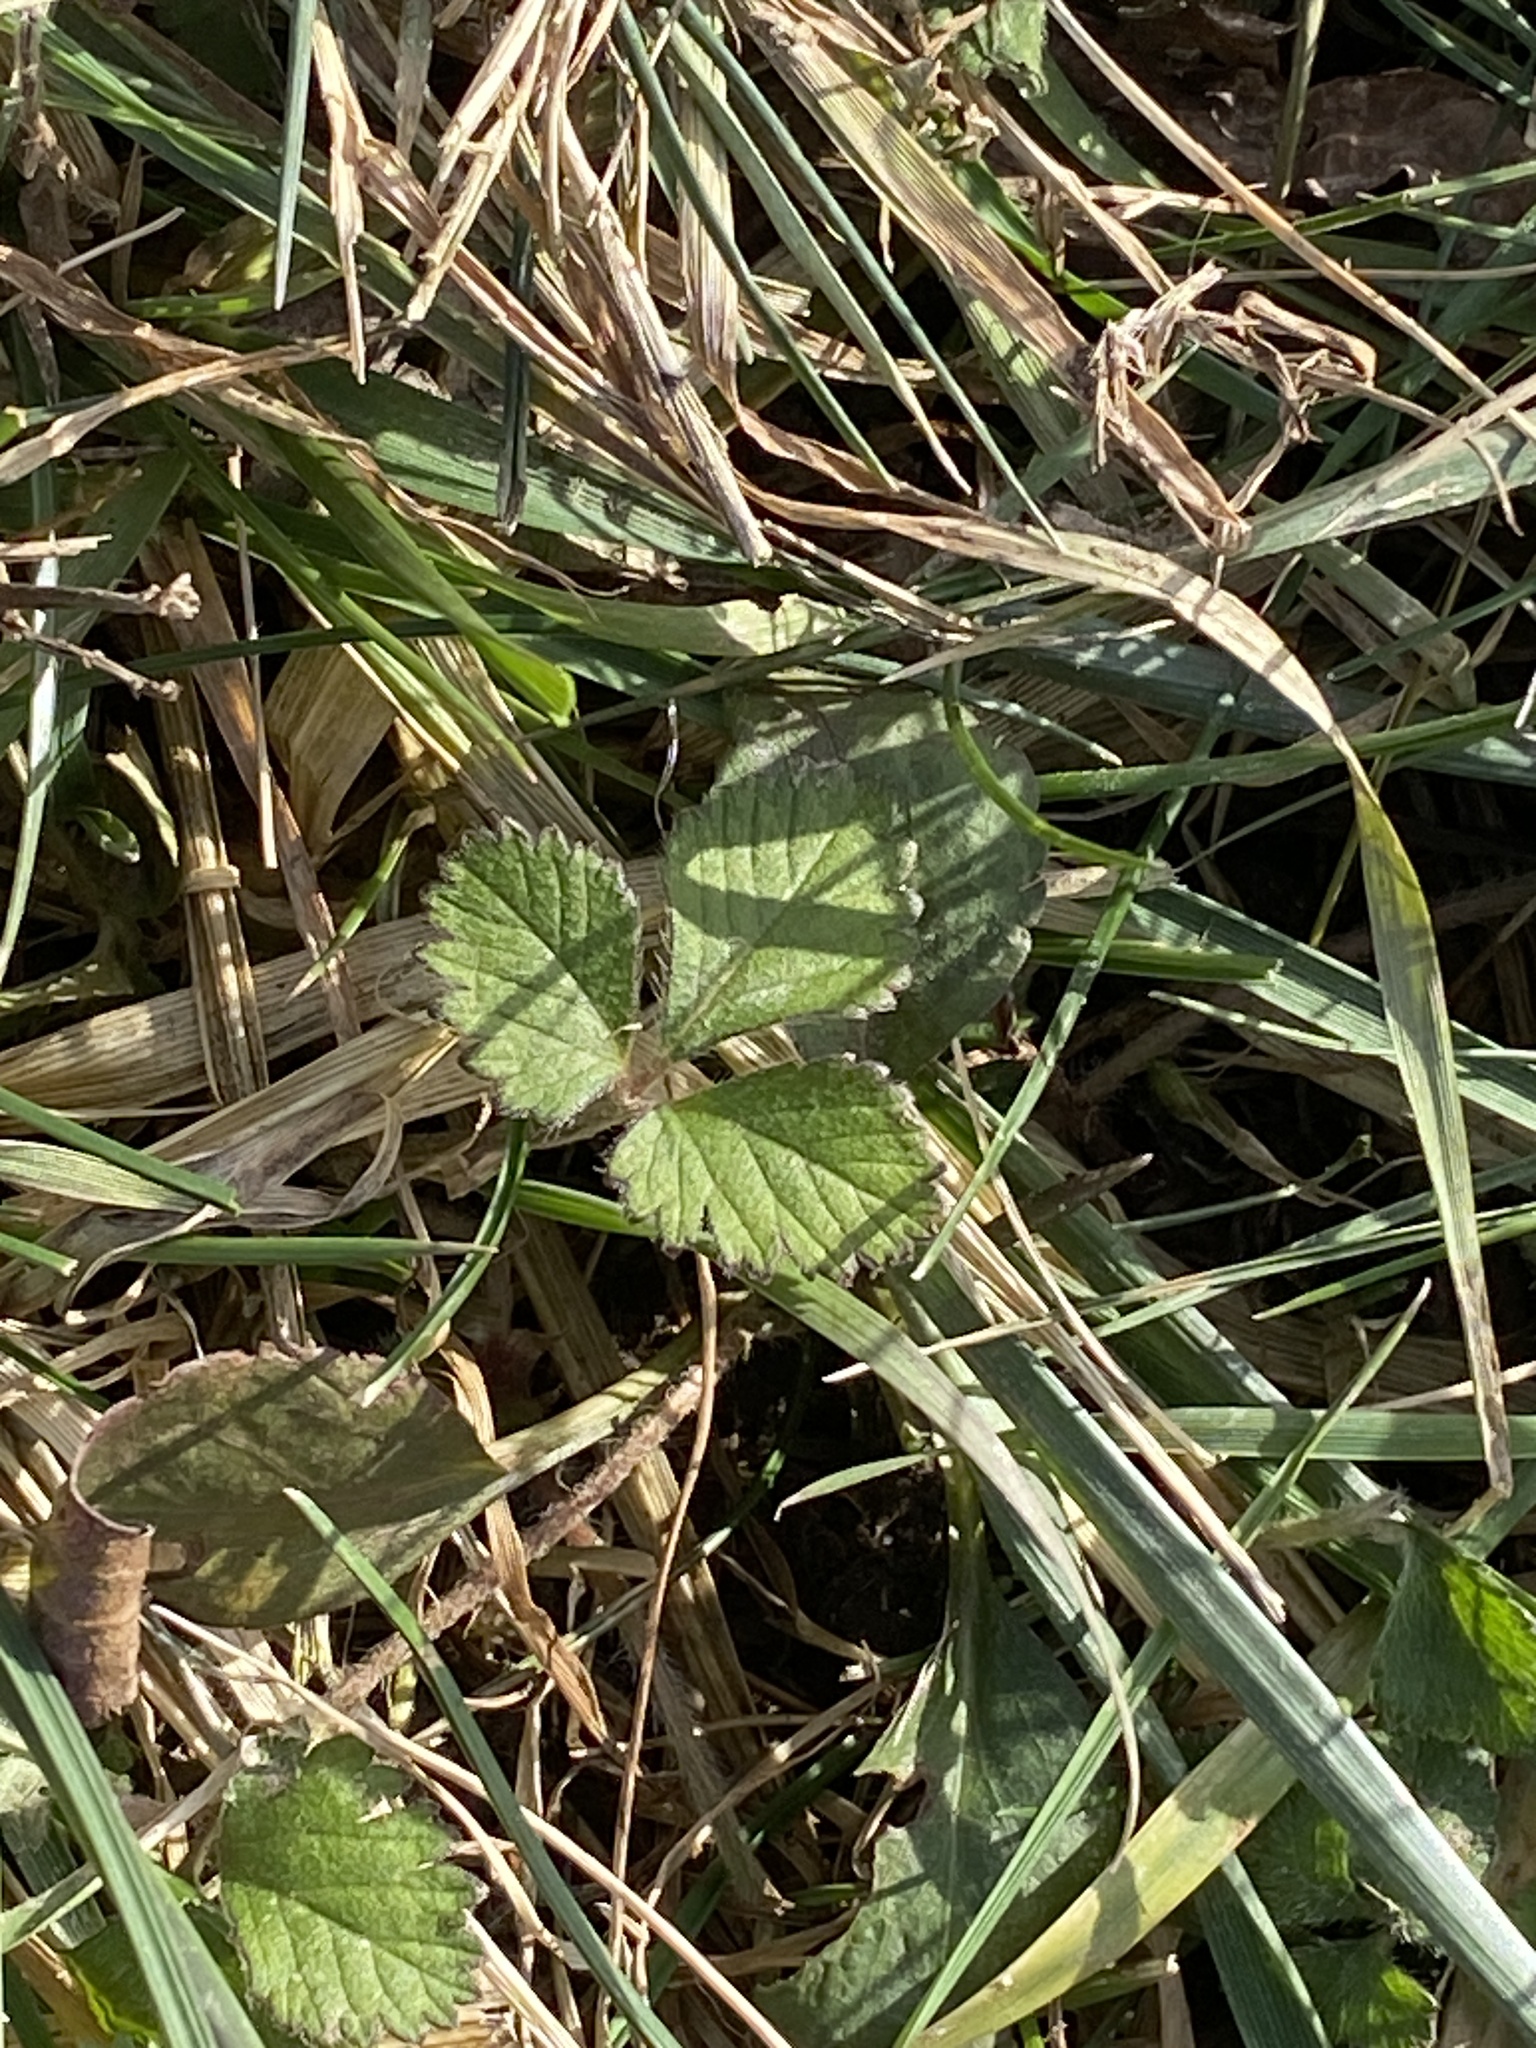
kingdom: Plantae
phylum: Tracheophyta
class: Magnoliopsida
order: Rosales
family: Rosaceae
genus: Potentilla
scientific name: Potentilla indica
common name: Yellow-flowered strawberry
